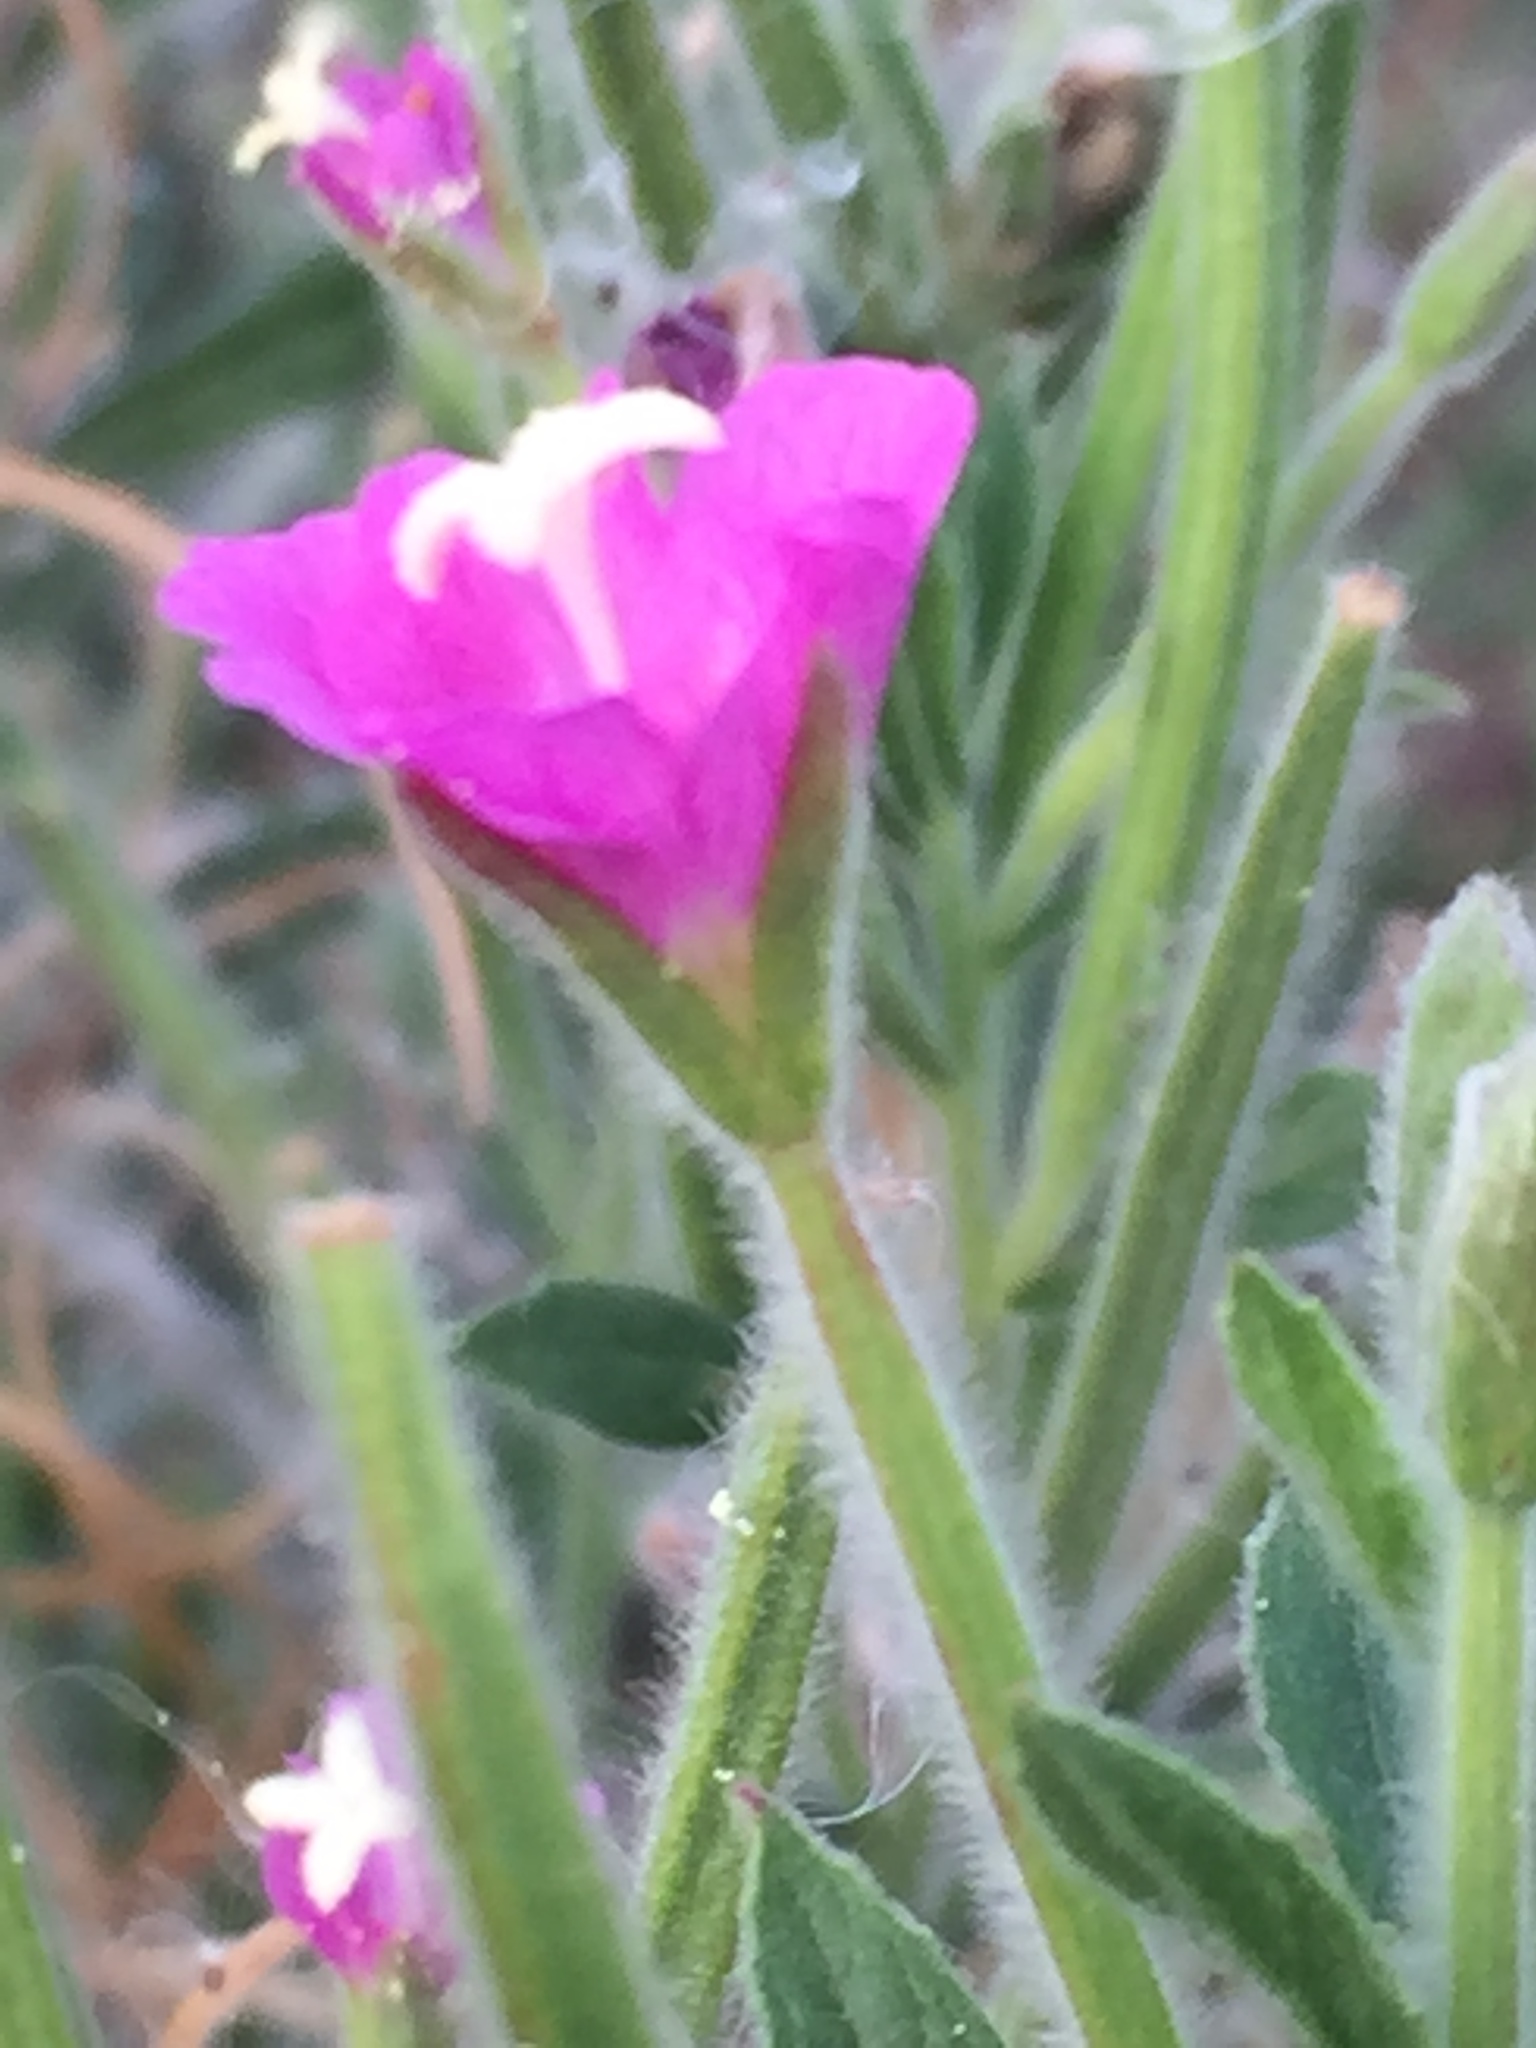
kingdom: Plantae
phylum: Tracheophyta
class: Magnoliopsida
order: Myrtales
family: Onagraceae
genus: Epilobium
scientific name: Epilobium hirsutum
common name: Great willowherb
